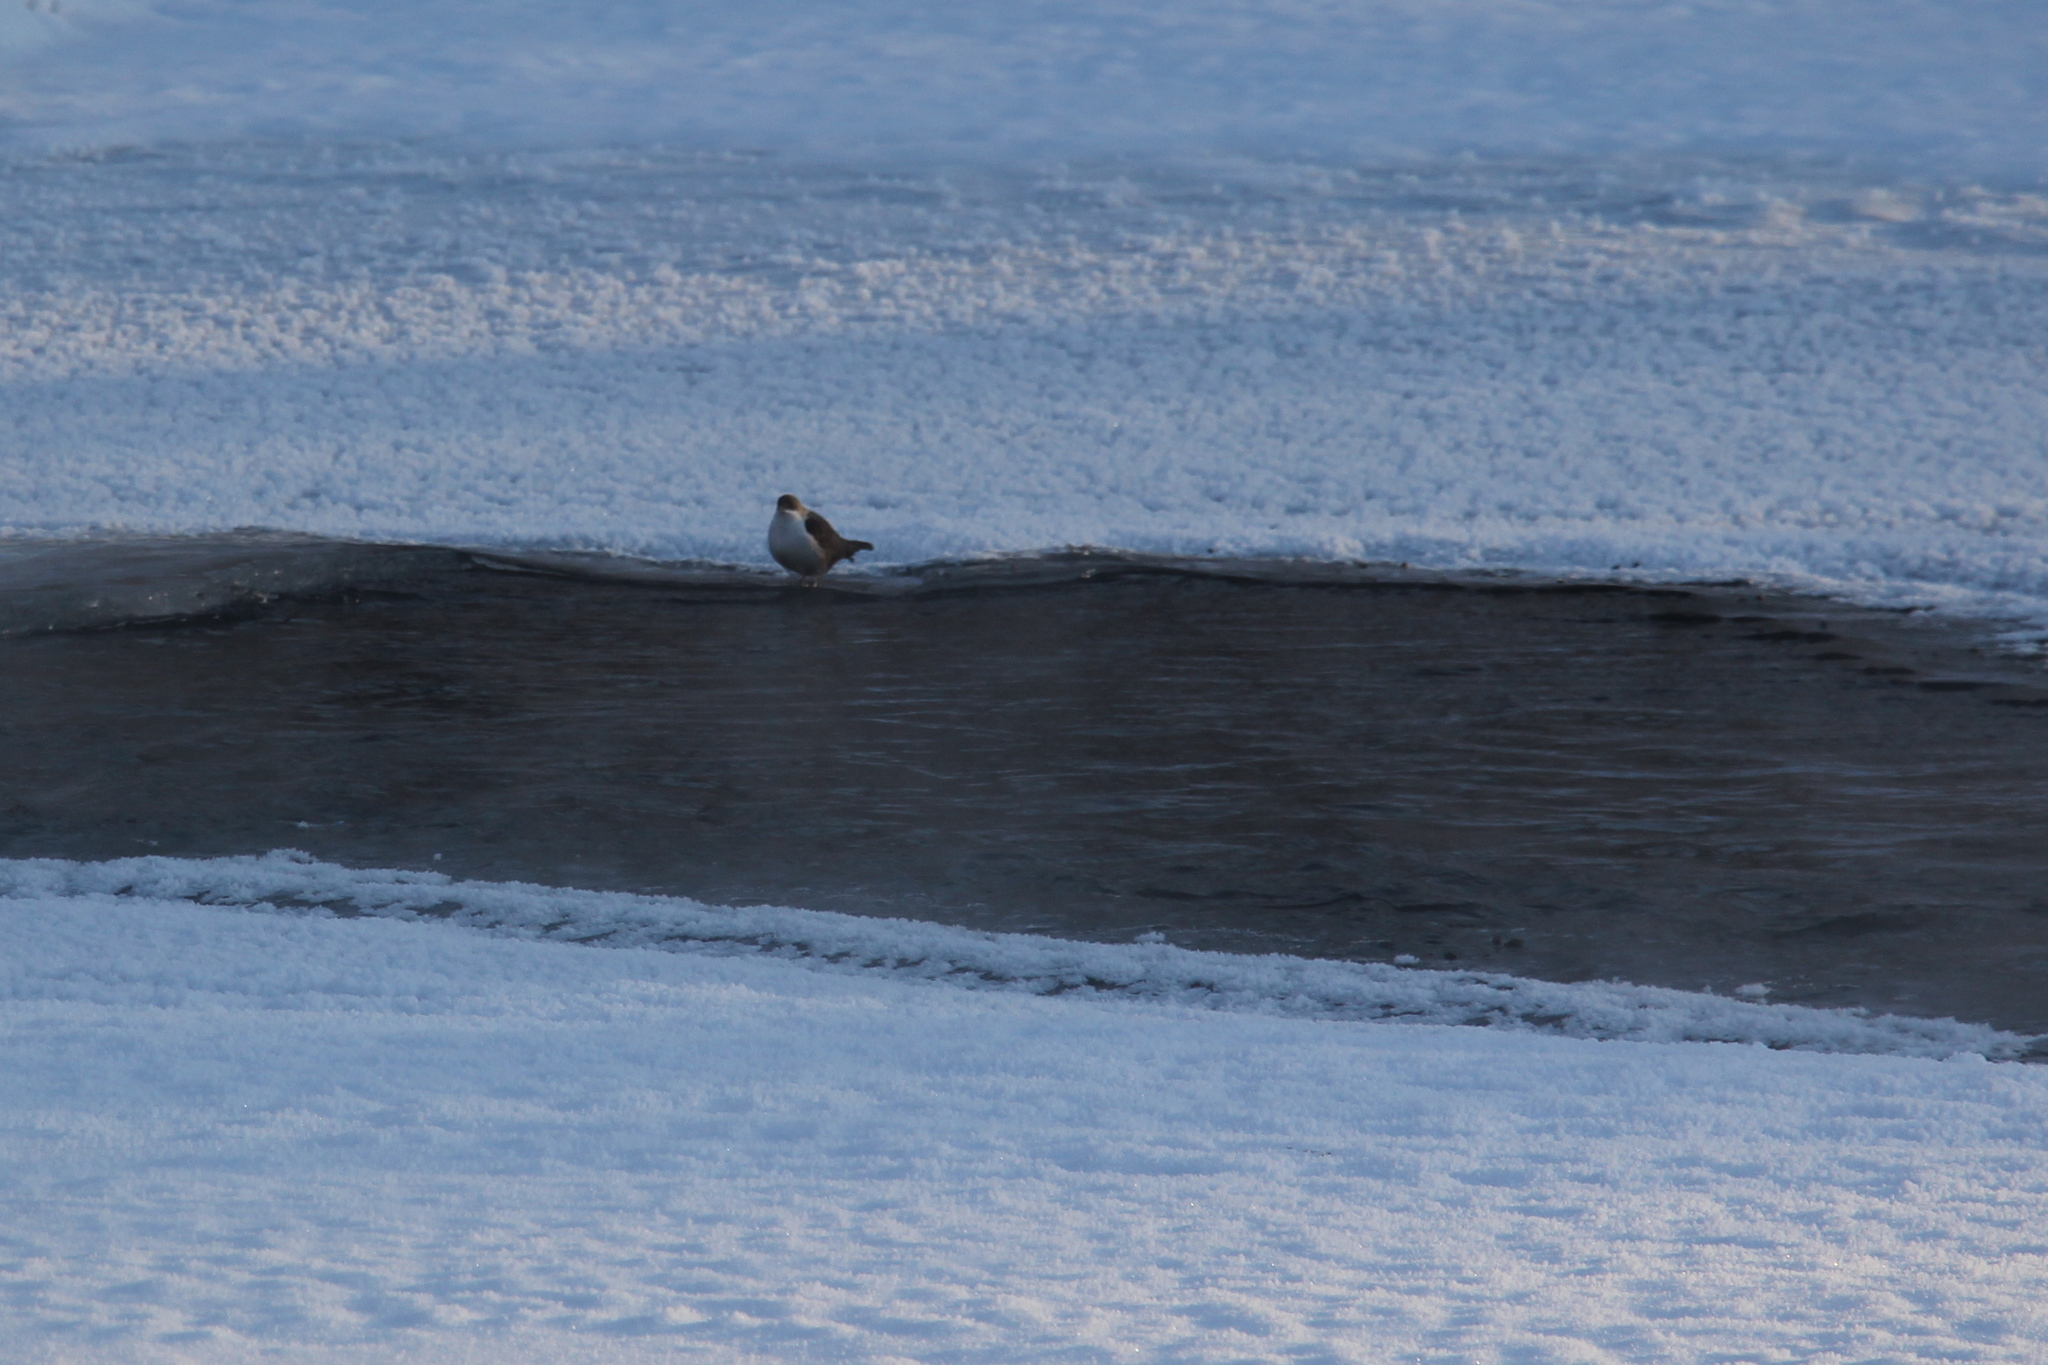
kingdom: Animalia
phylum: Chordata
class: Aves
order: Passeriformes
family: Cinclidae
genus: Cinclus
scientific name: Cinclus cinclus
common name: White-throated dipper
